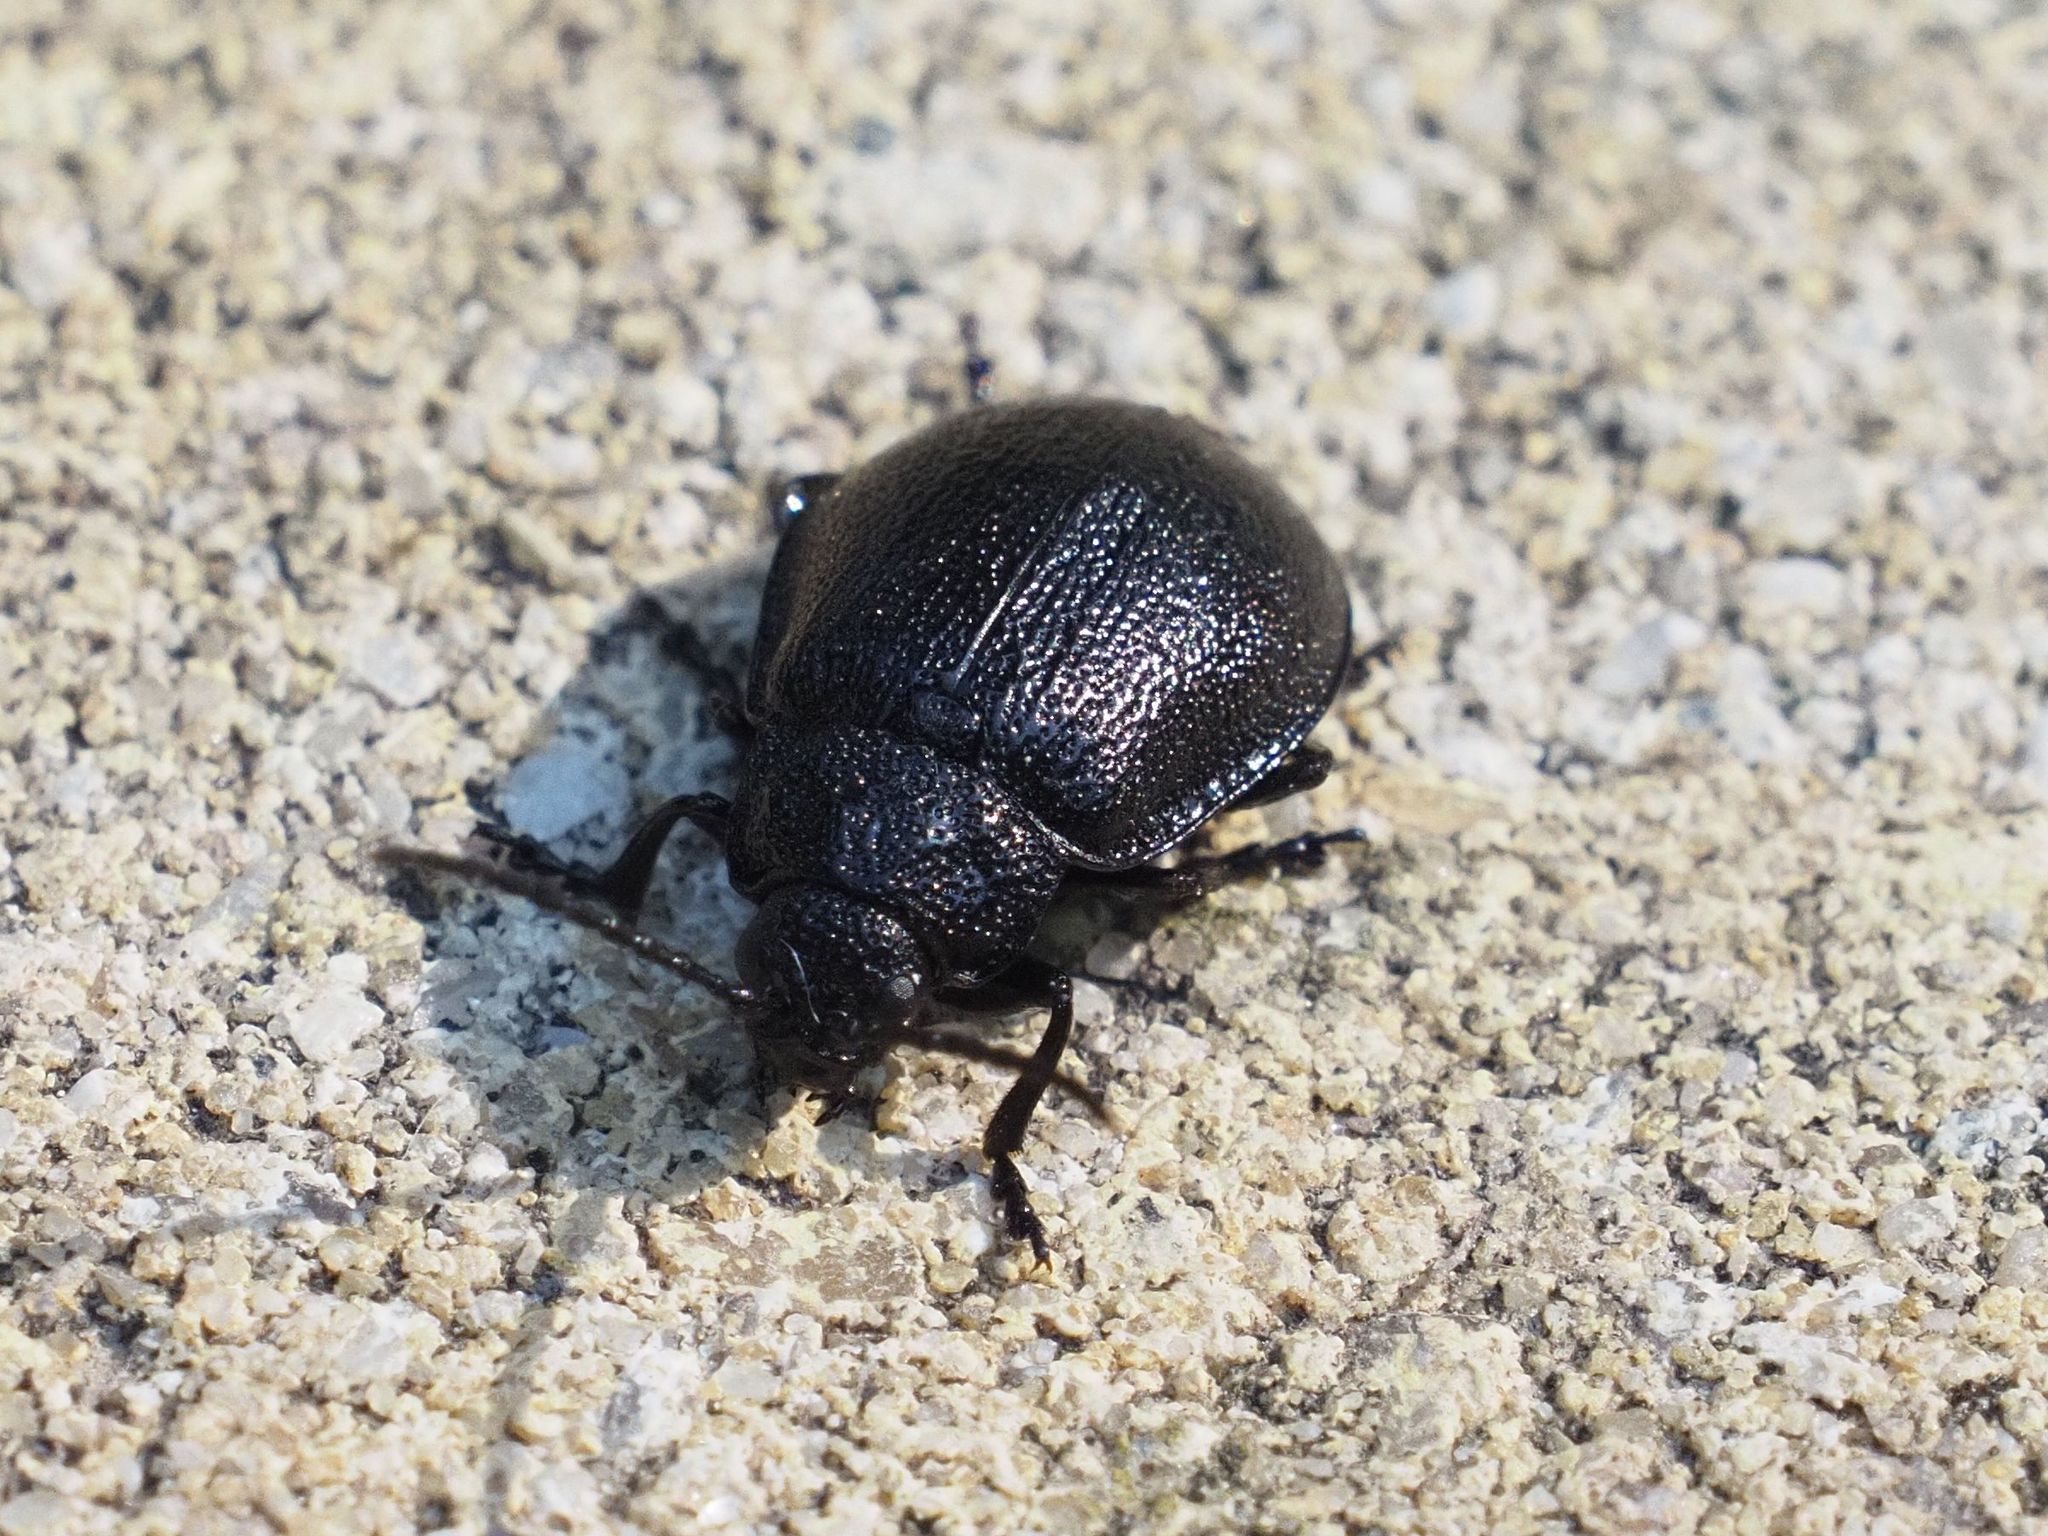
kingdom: Animalia
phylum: Arthropoda
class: Insecta
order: Coleoptera
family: Chrysomelidae
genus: Galeruca
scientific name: Galeruca tanaceti
